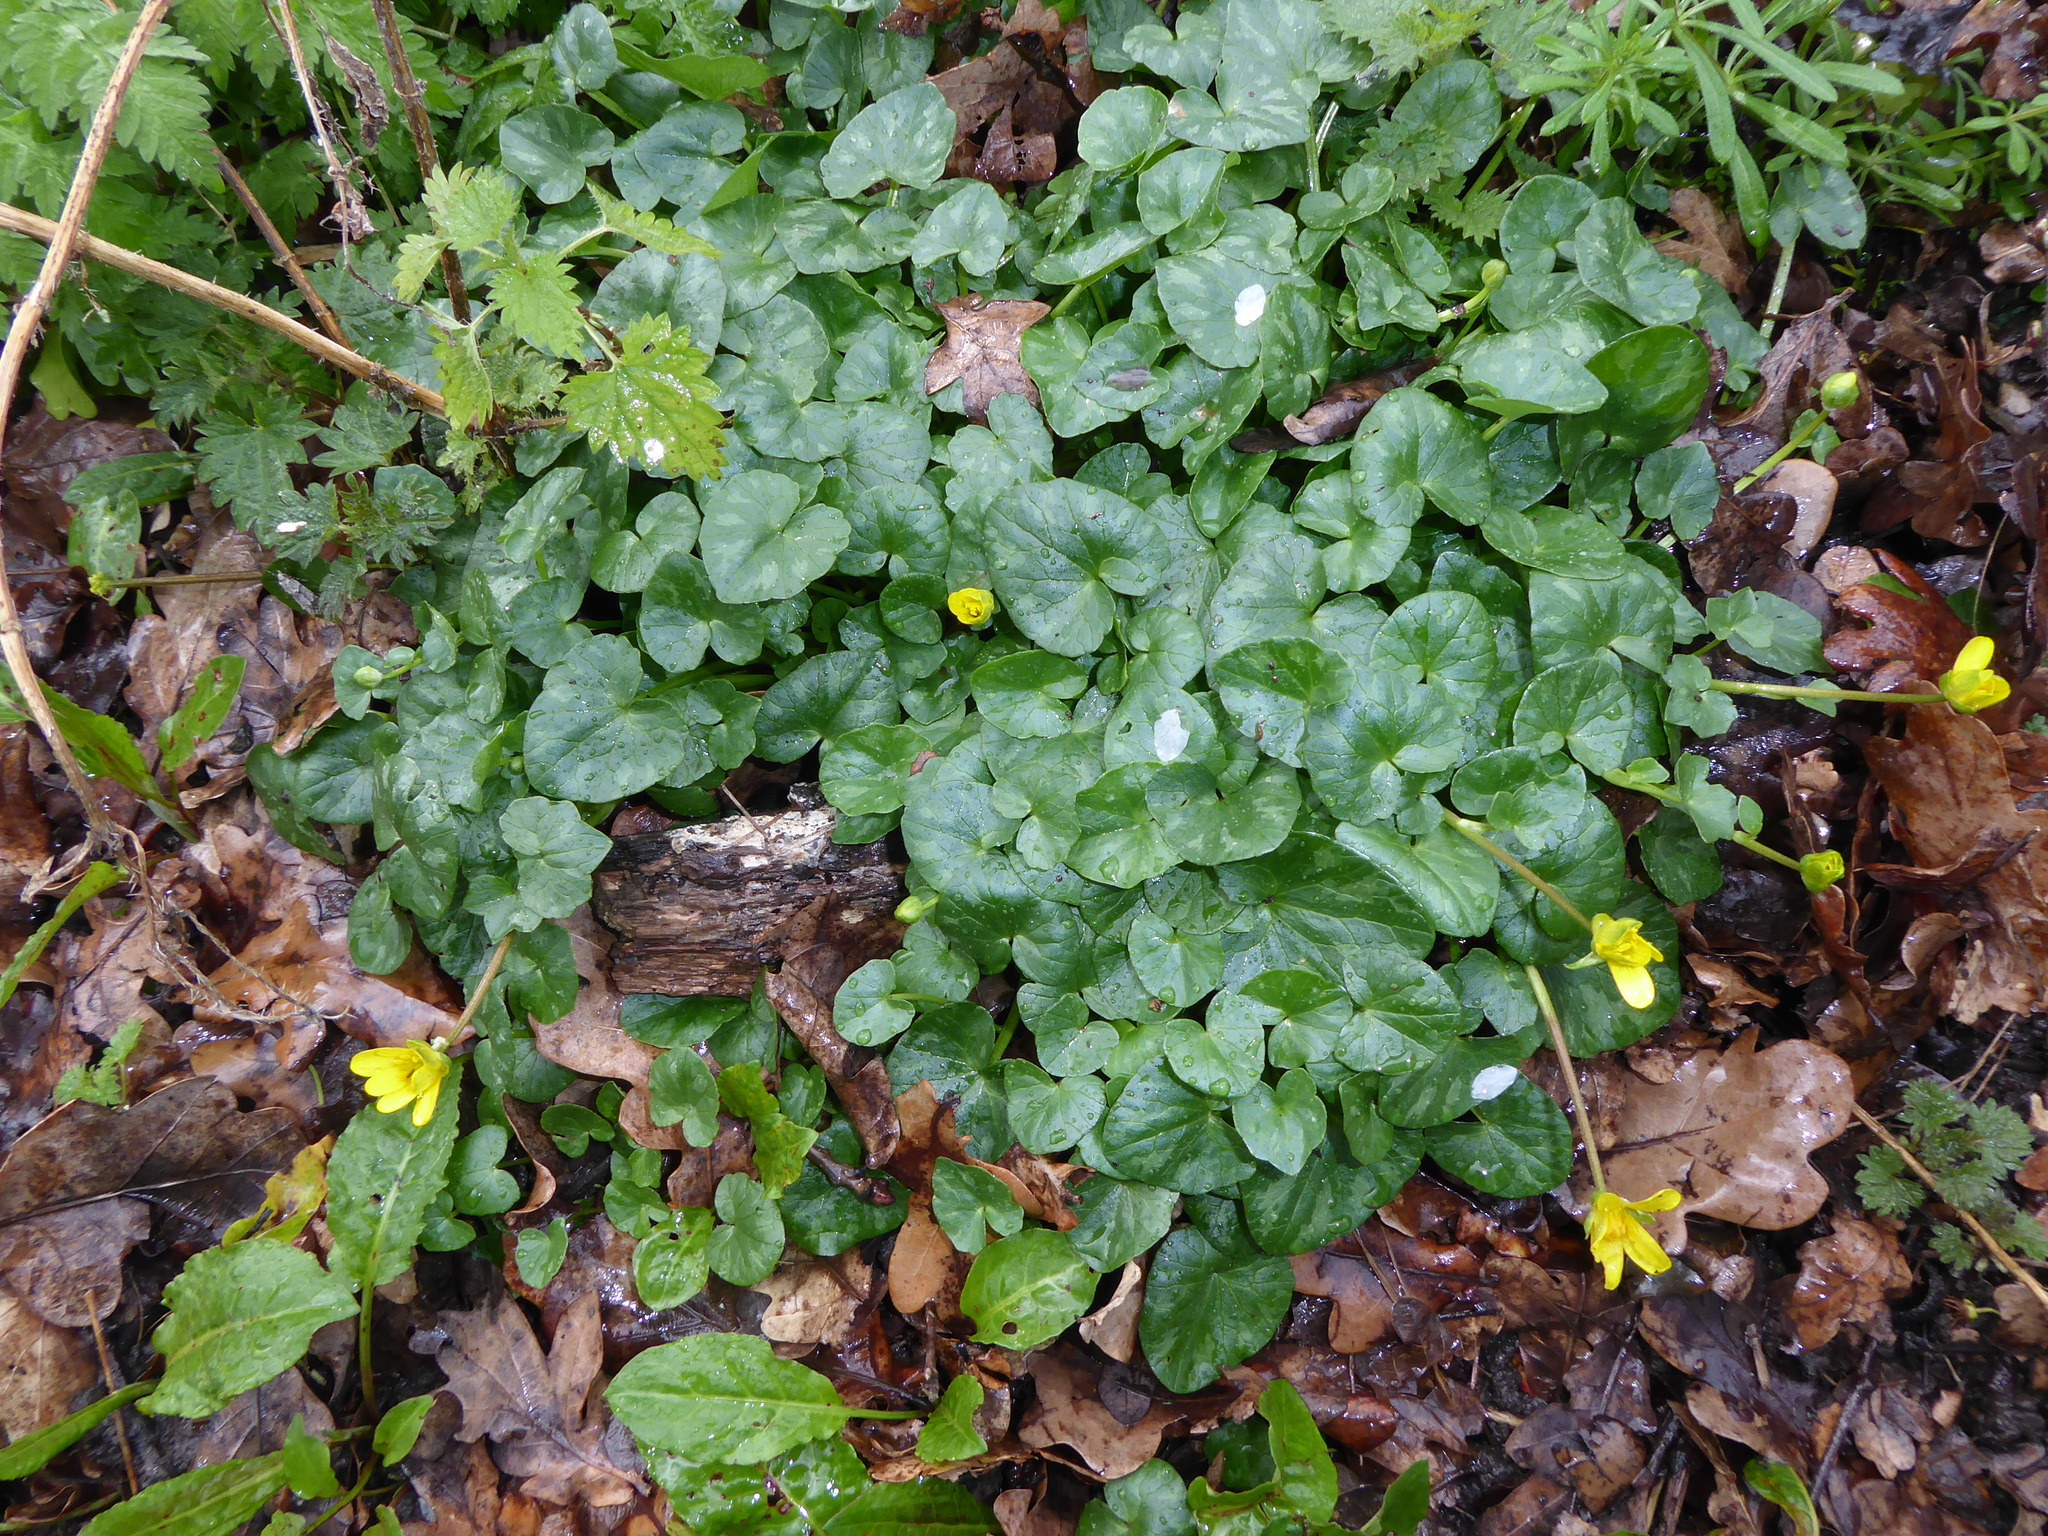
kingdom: Plantae
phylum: Tracheophyta
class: Magnoliopsida
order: Ranunculales
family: Ranunculaceae
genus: Ficaria
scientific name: Ficaria verna
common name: Lesser celandine
